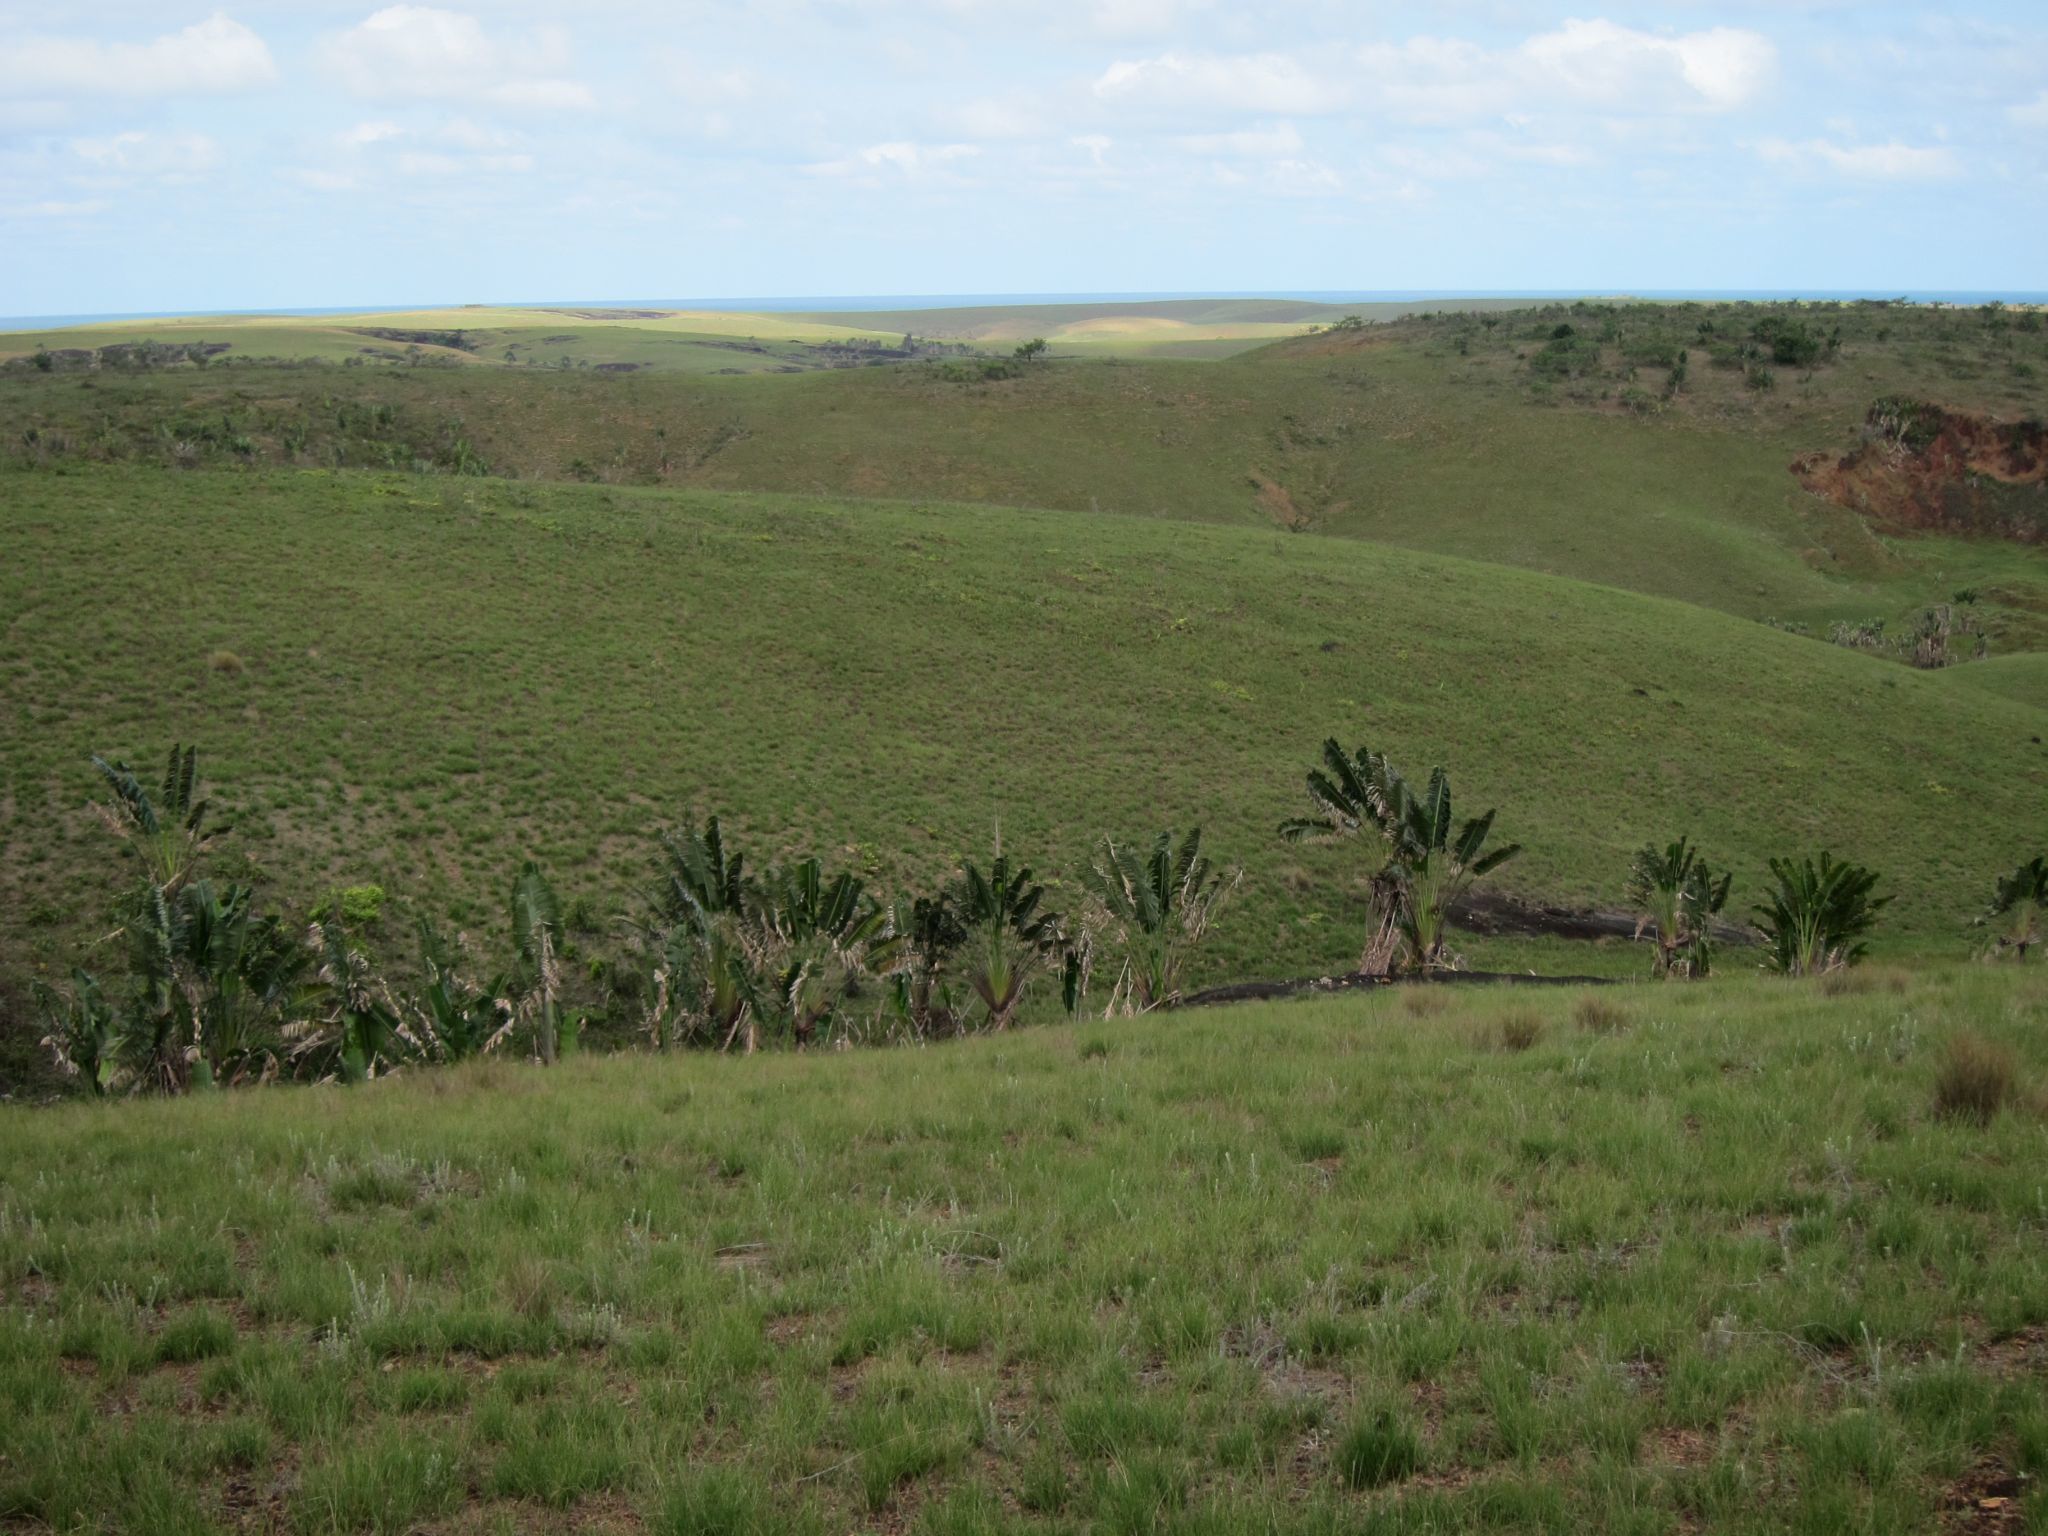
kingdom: Plantae
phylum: Tracheophyta
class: Liliopsida
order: Zingiberales
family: Strelitziaceae
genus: Ravenala
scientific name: Ravenala madagascariensis
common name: Traveler's-palm
